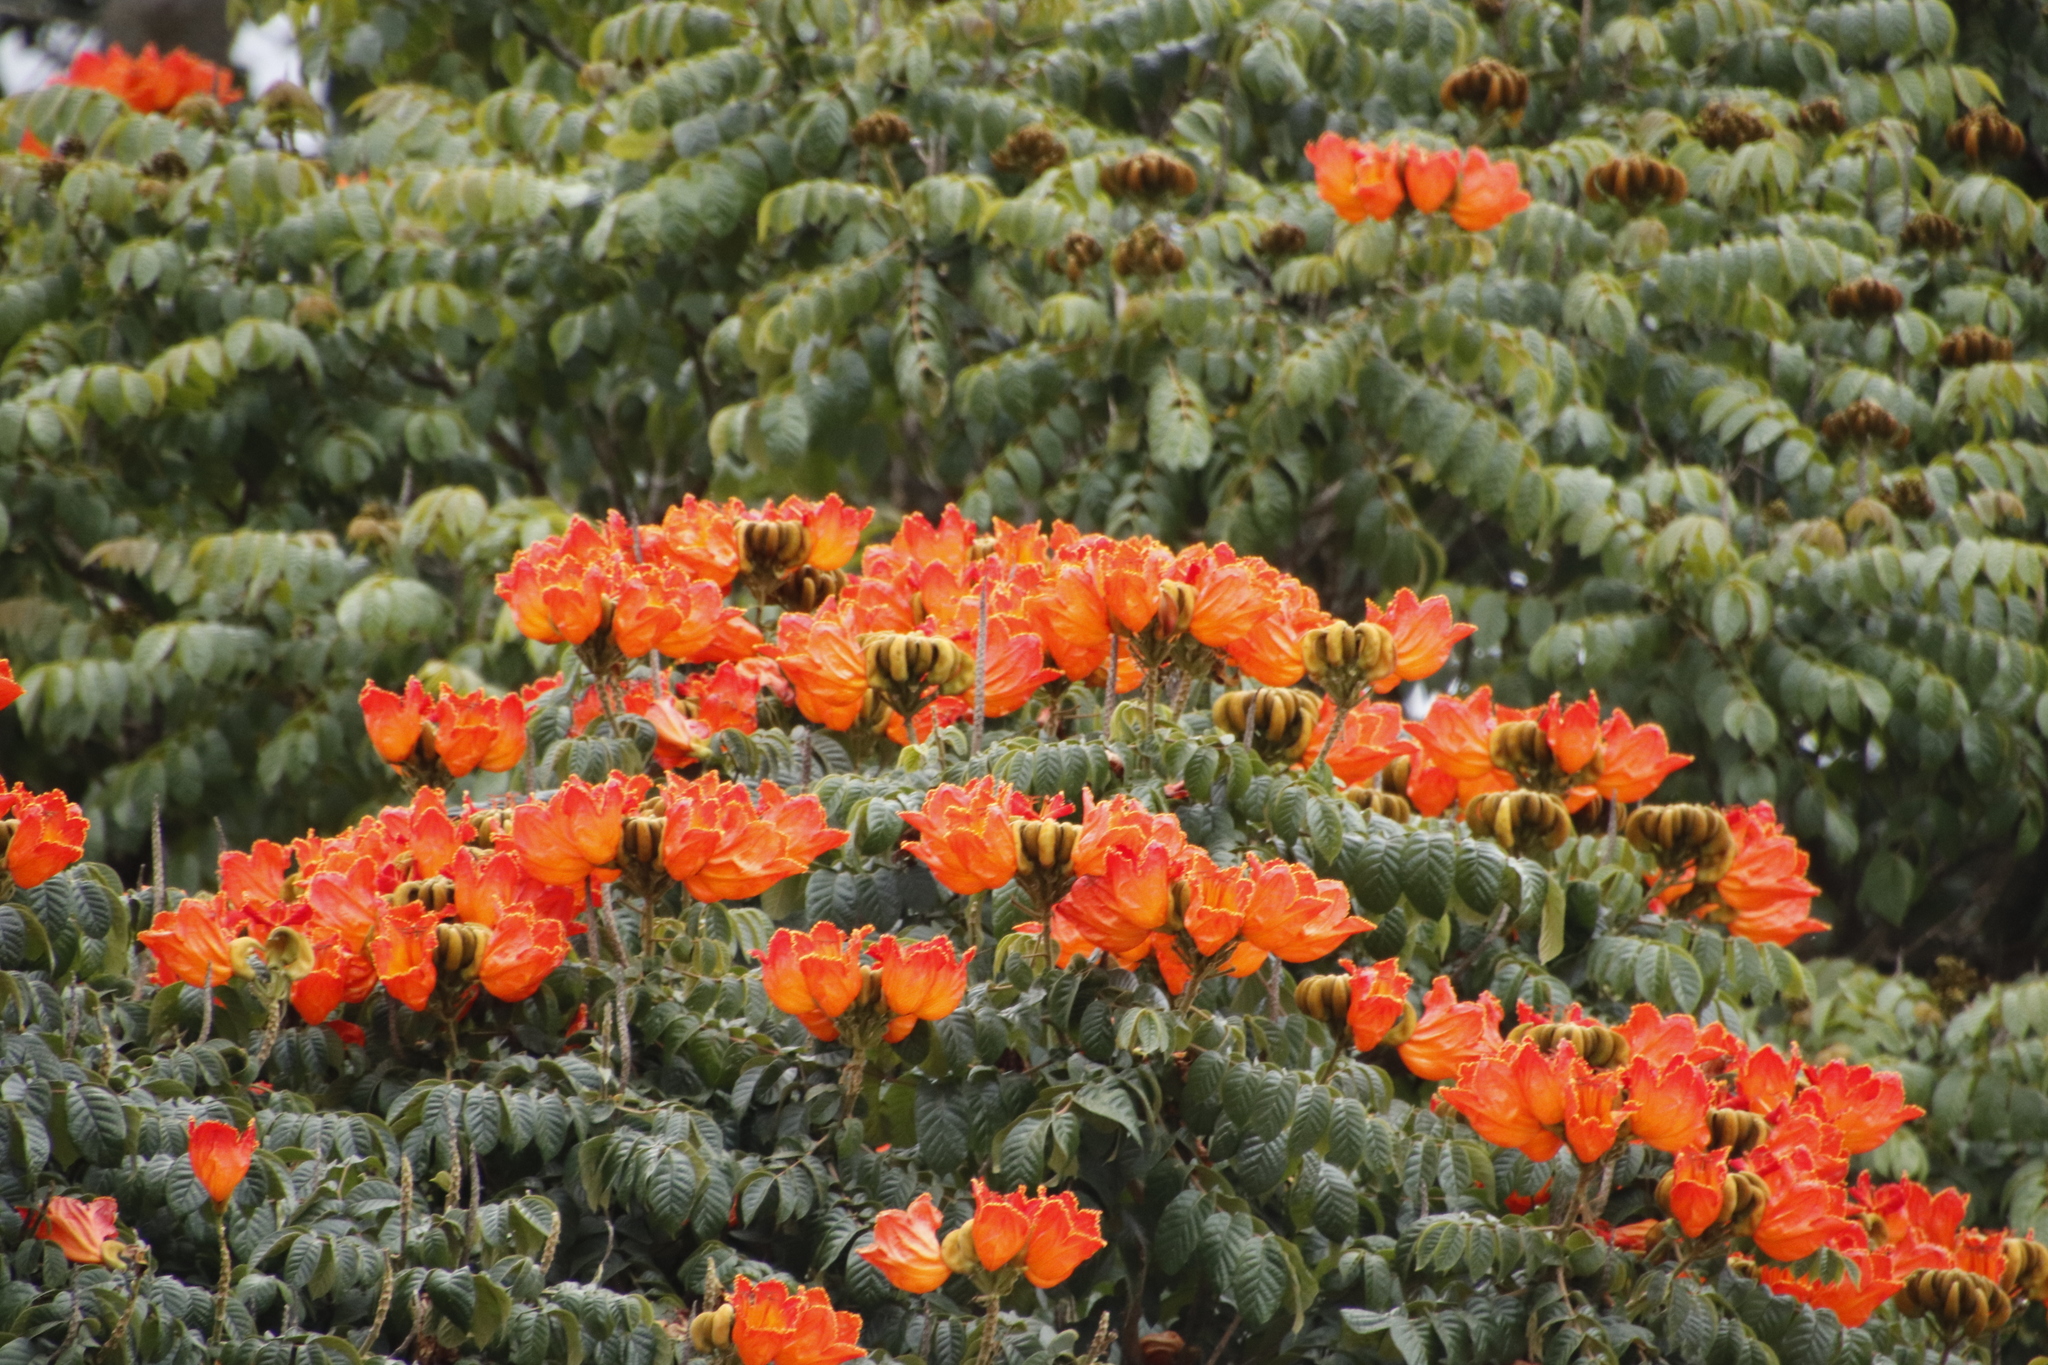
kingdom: Plantae
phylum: Tracheophyta
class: Magnoliopsida
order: Lamiales
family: Bignoniaceae
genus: Spathodea
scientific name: Spathodea campanulata
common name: African tuliptree
